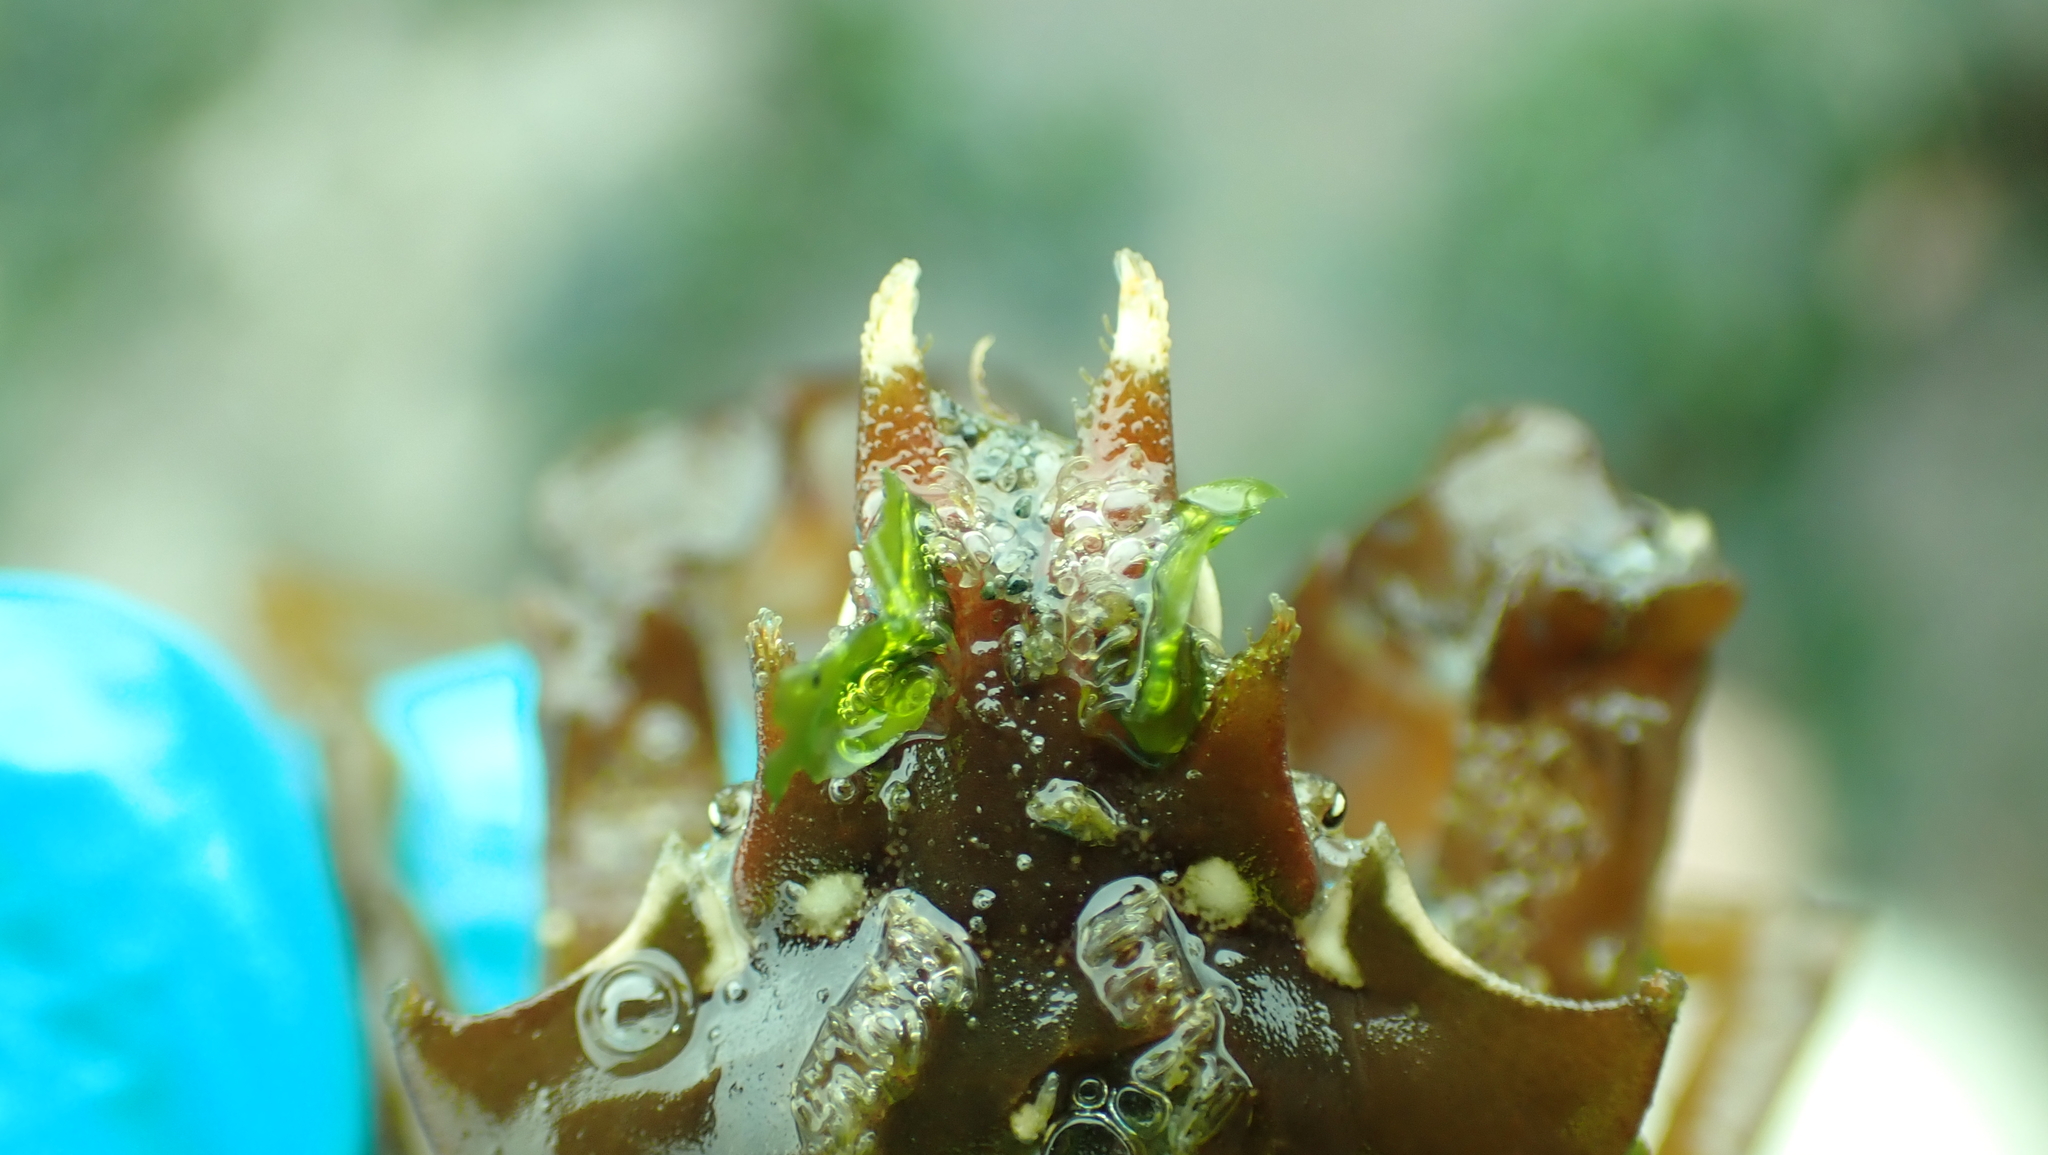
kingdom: Animalia
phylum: Arthropoda
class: Malacostraca
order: Decapoda
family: Epialtidae
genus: Pugettia
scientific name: Pugettia gracilis
